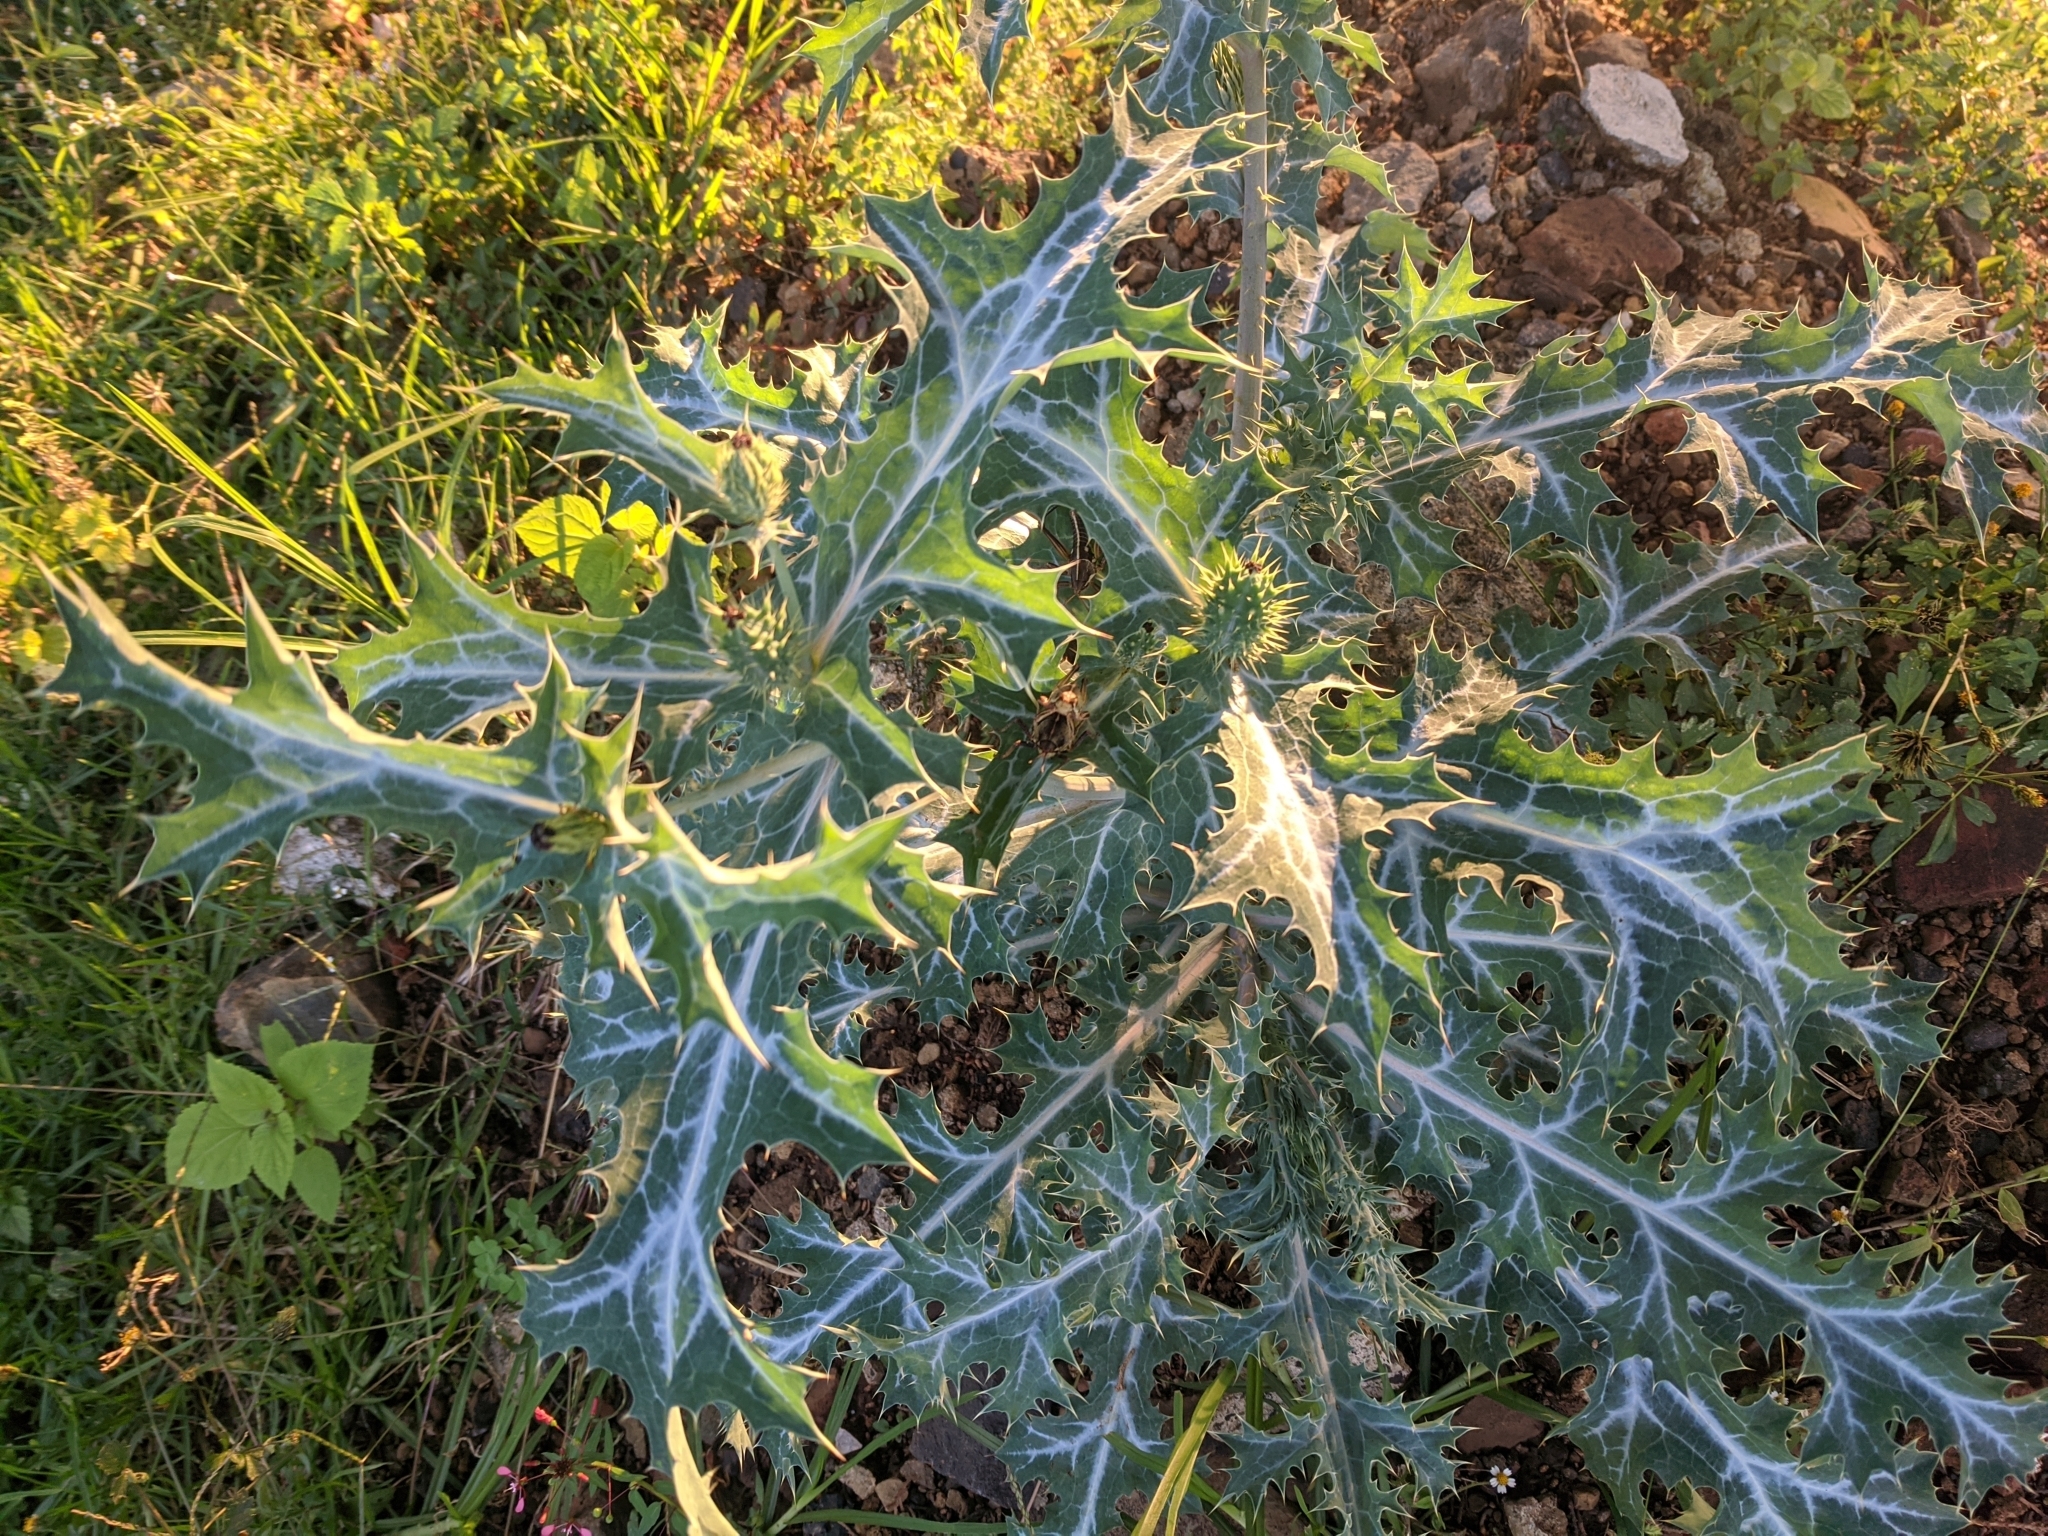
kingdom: Plantae
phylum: Tracheophyta
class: Magnoliopsida
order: Ranunculales
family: Papaveraceae
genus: Argemone
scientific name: Argemone ochroleuca
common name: White-flower mexican-poppy
